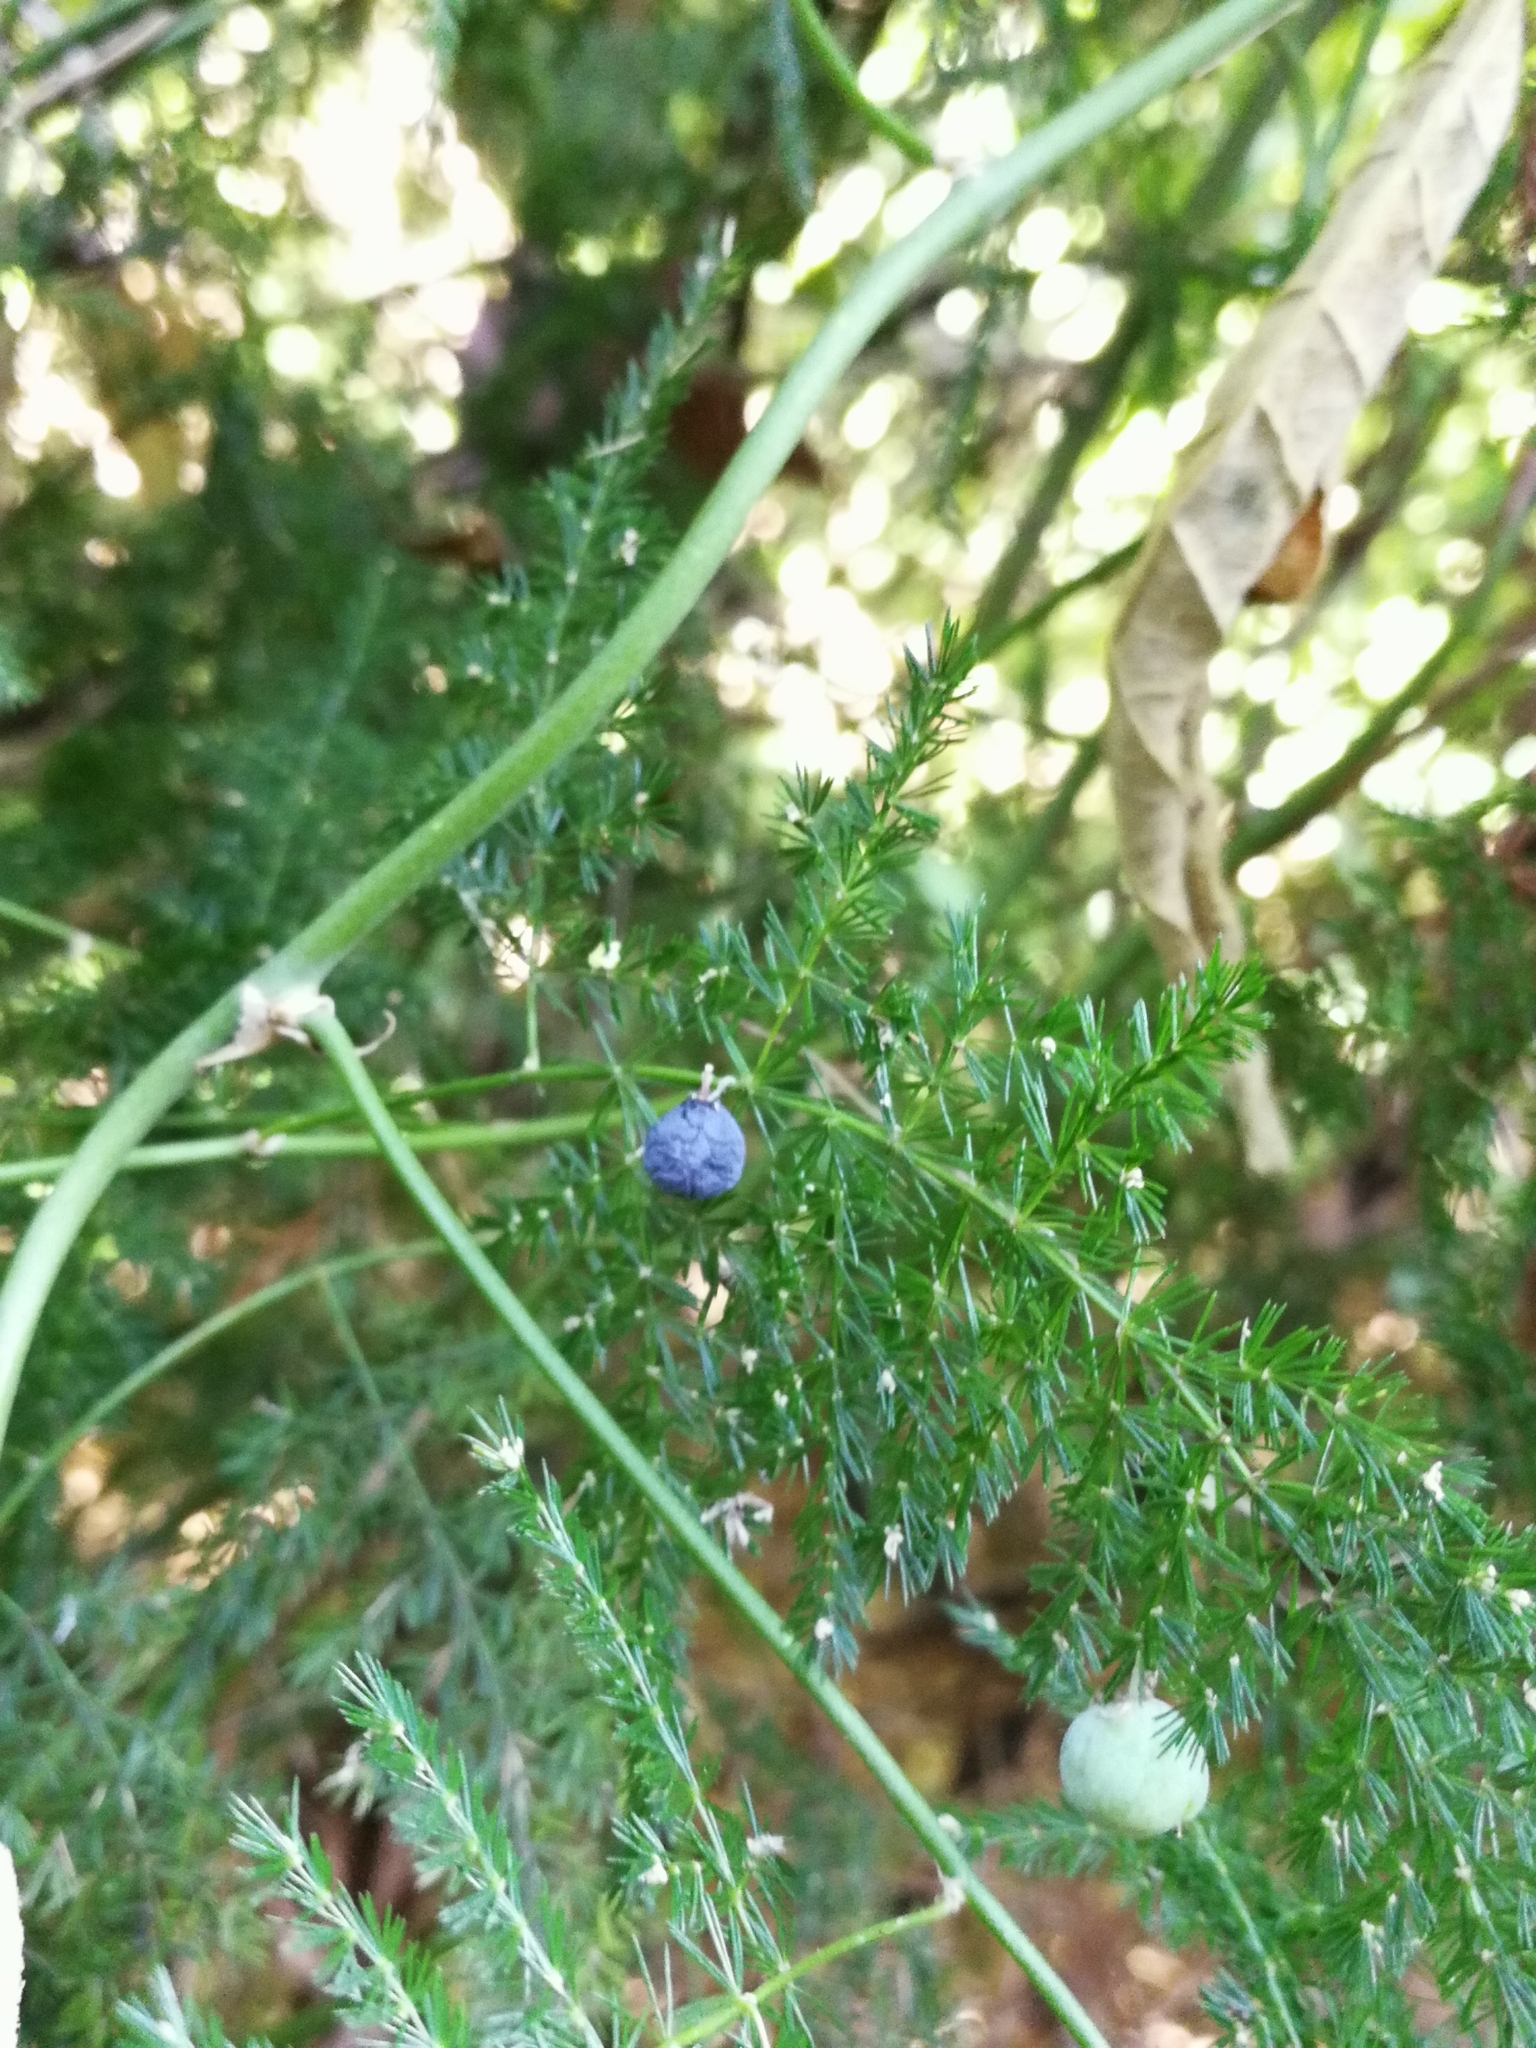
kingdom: Plantae
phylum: Tracheophyta
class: Liliopsida
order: Asparagales
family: Asparagaceae
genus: Asparagus
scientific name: Asparagus setaceus
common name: Common asparagus fern
